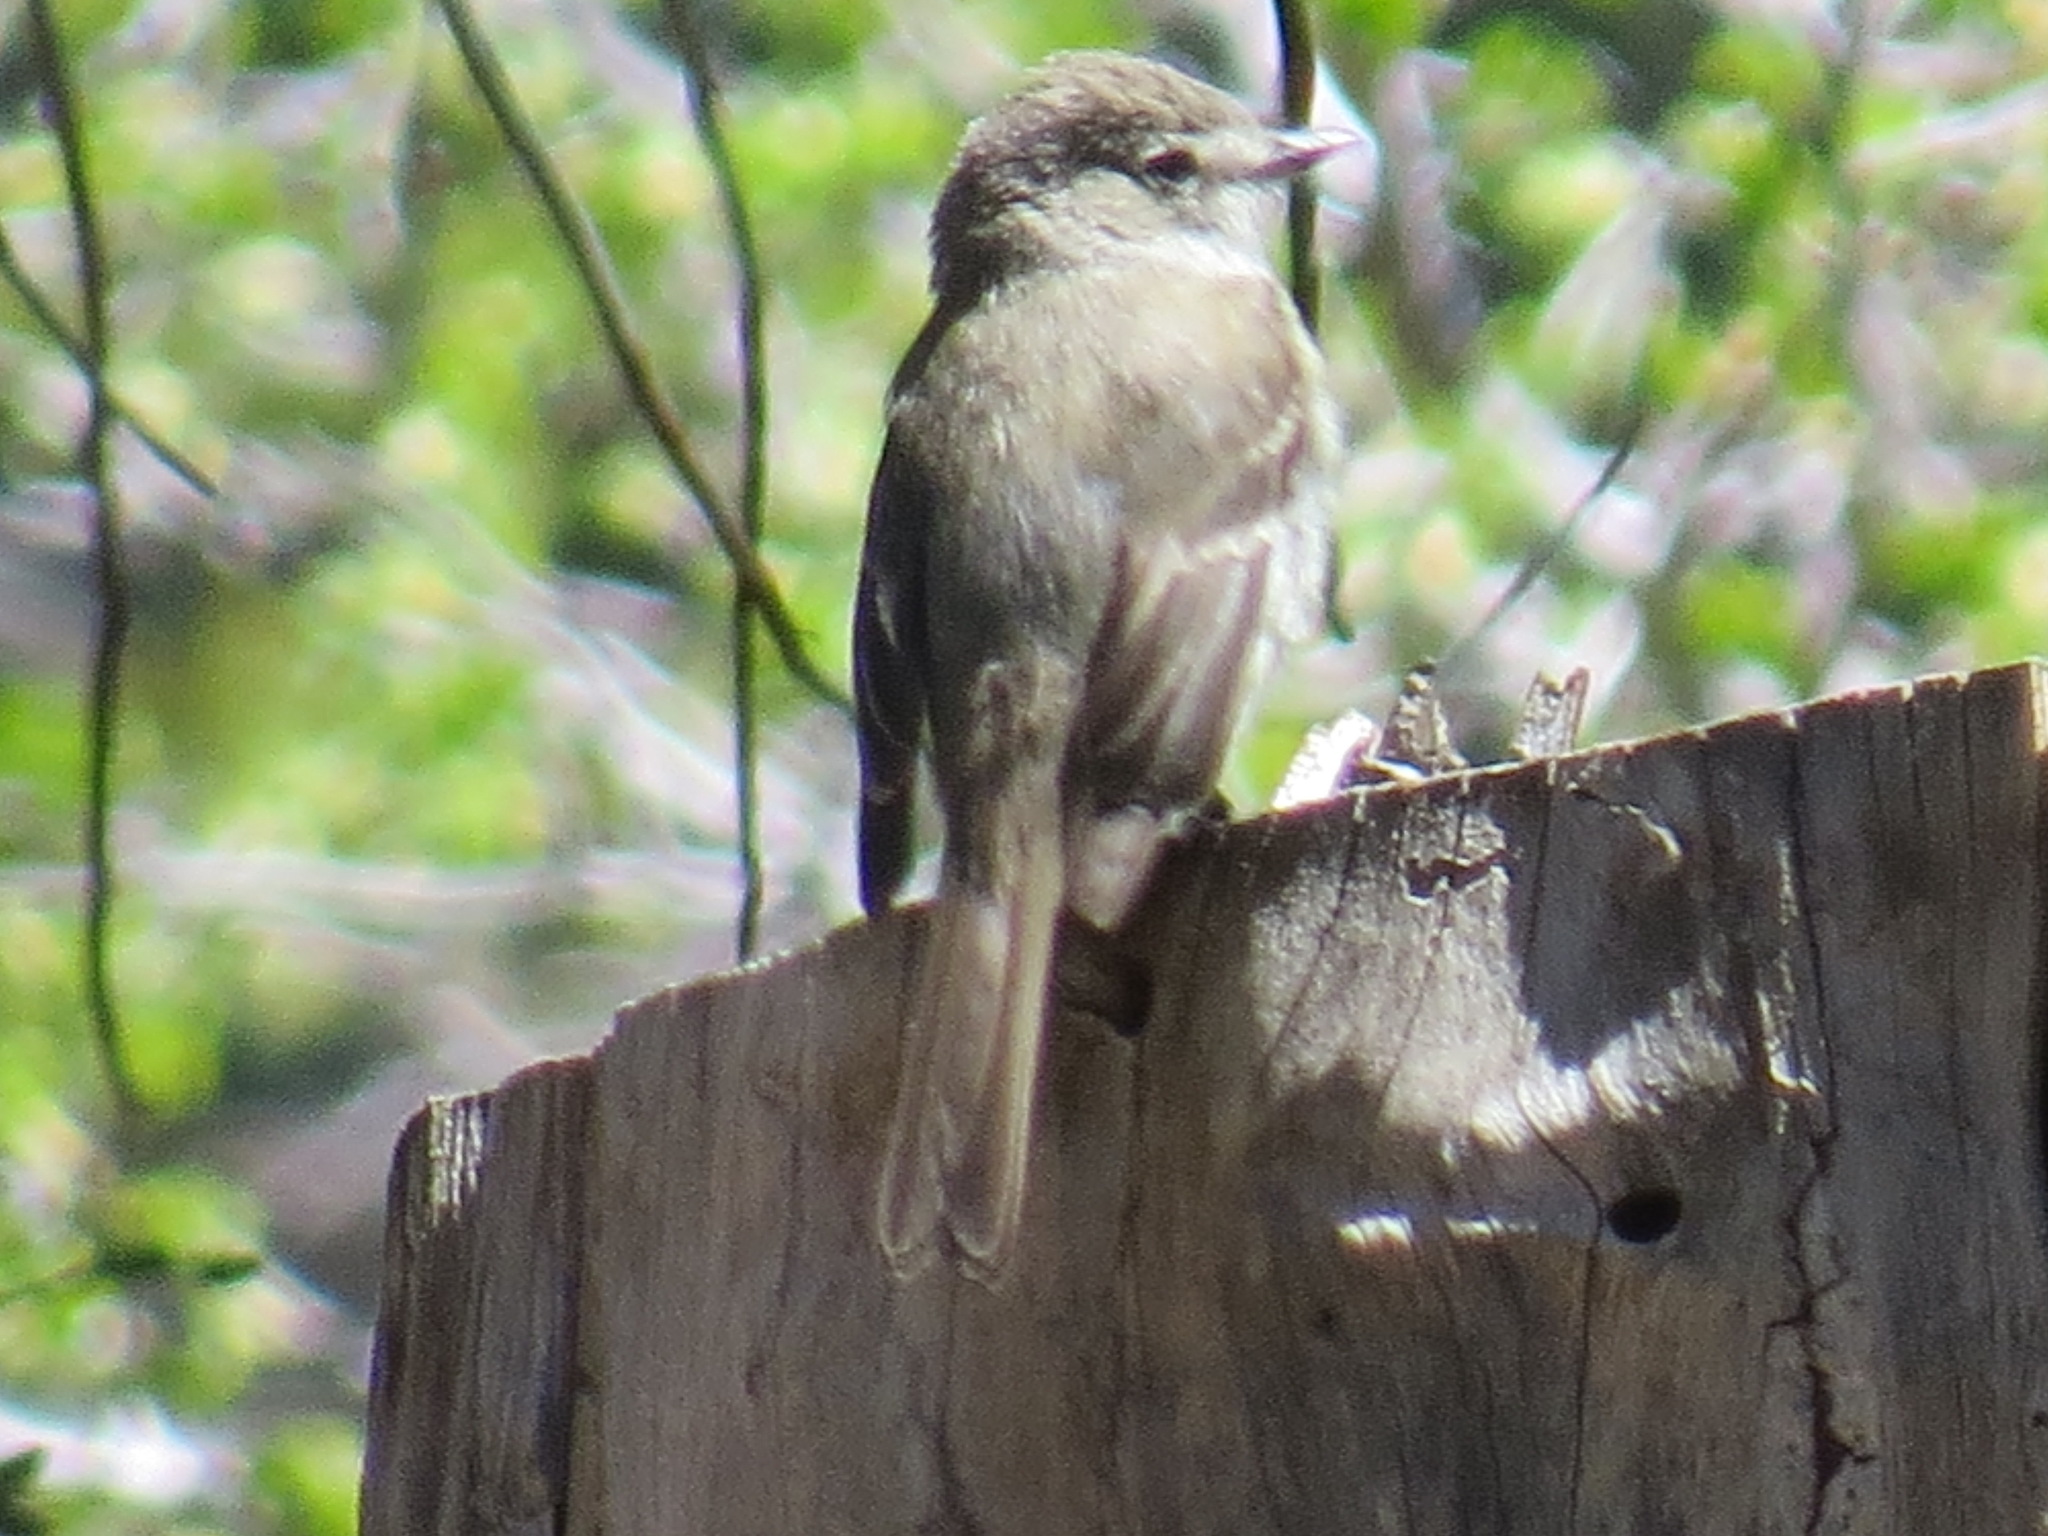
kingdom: Animalia
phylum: Chordata
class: Aves
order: Passeriformes
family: Tyrannidae
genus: Empidonax
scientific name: Empidonax oberholseri
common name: Dusky flycatcher
